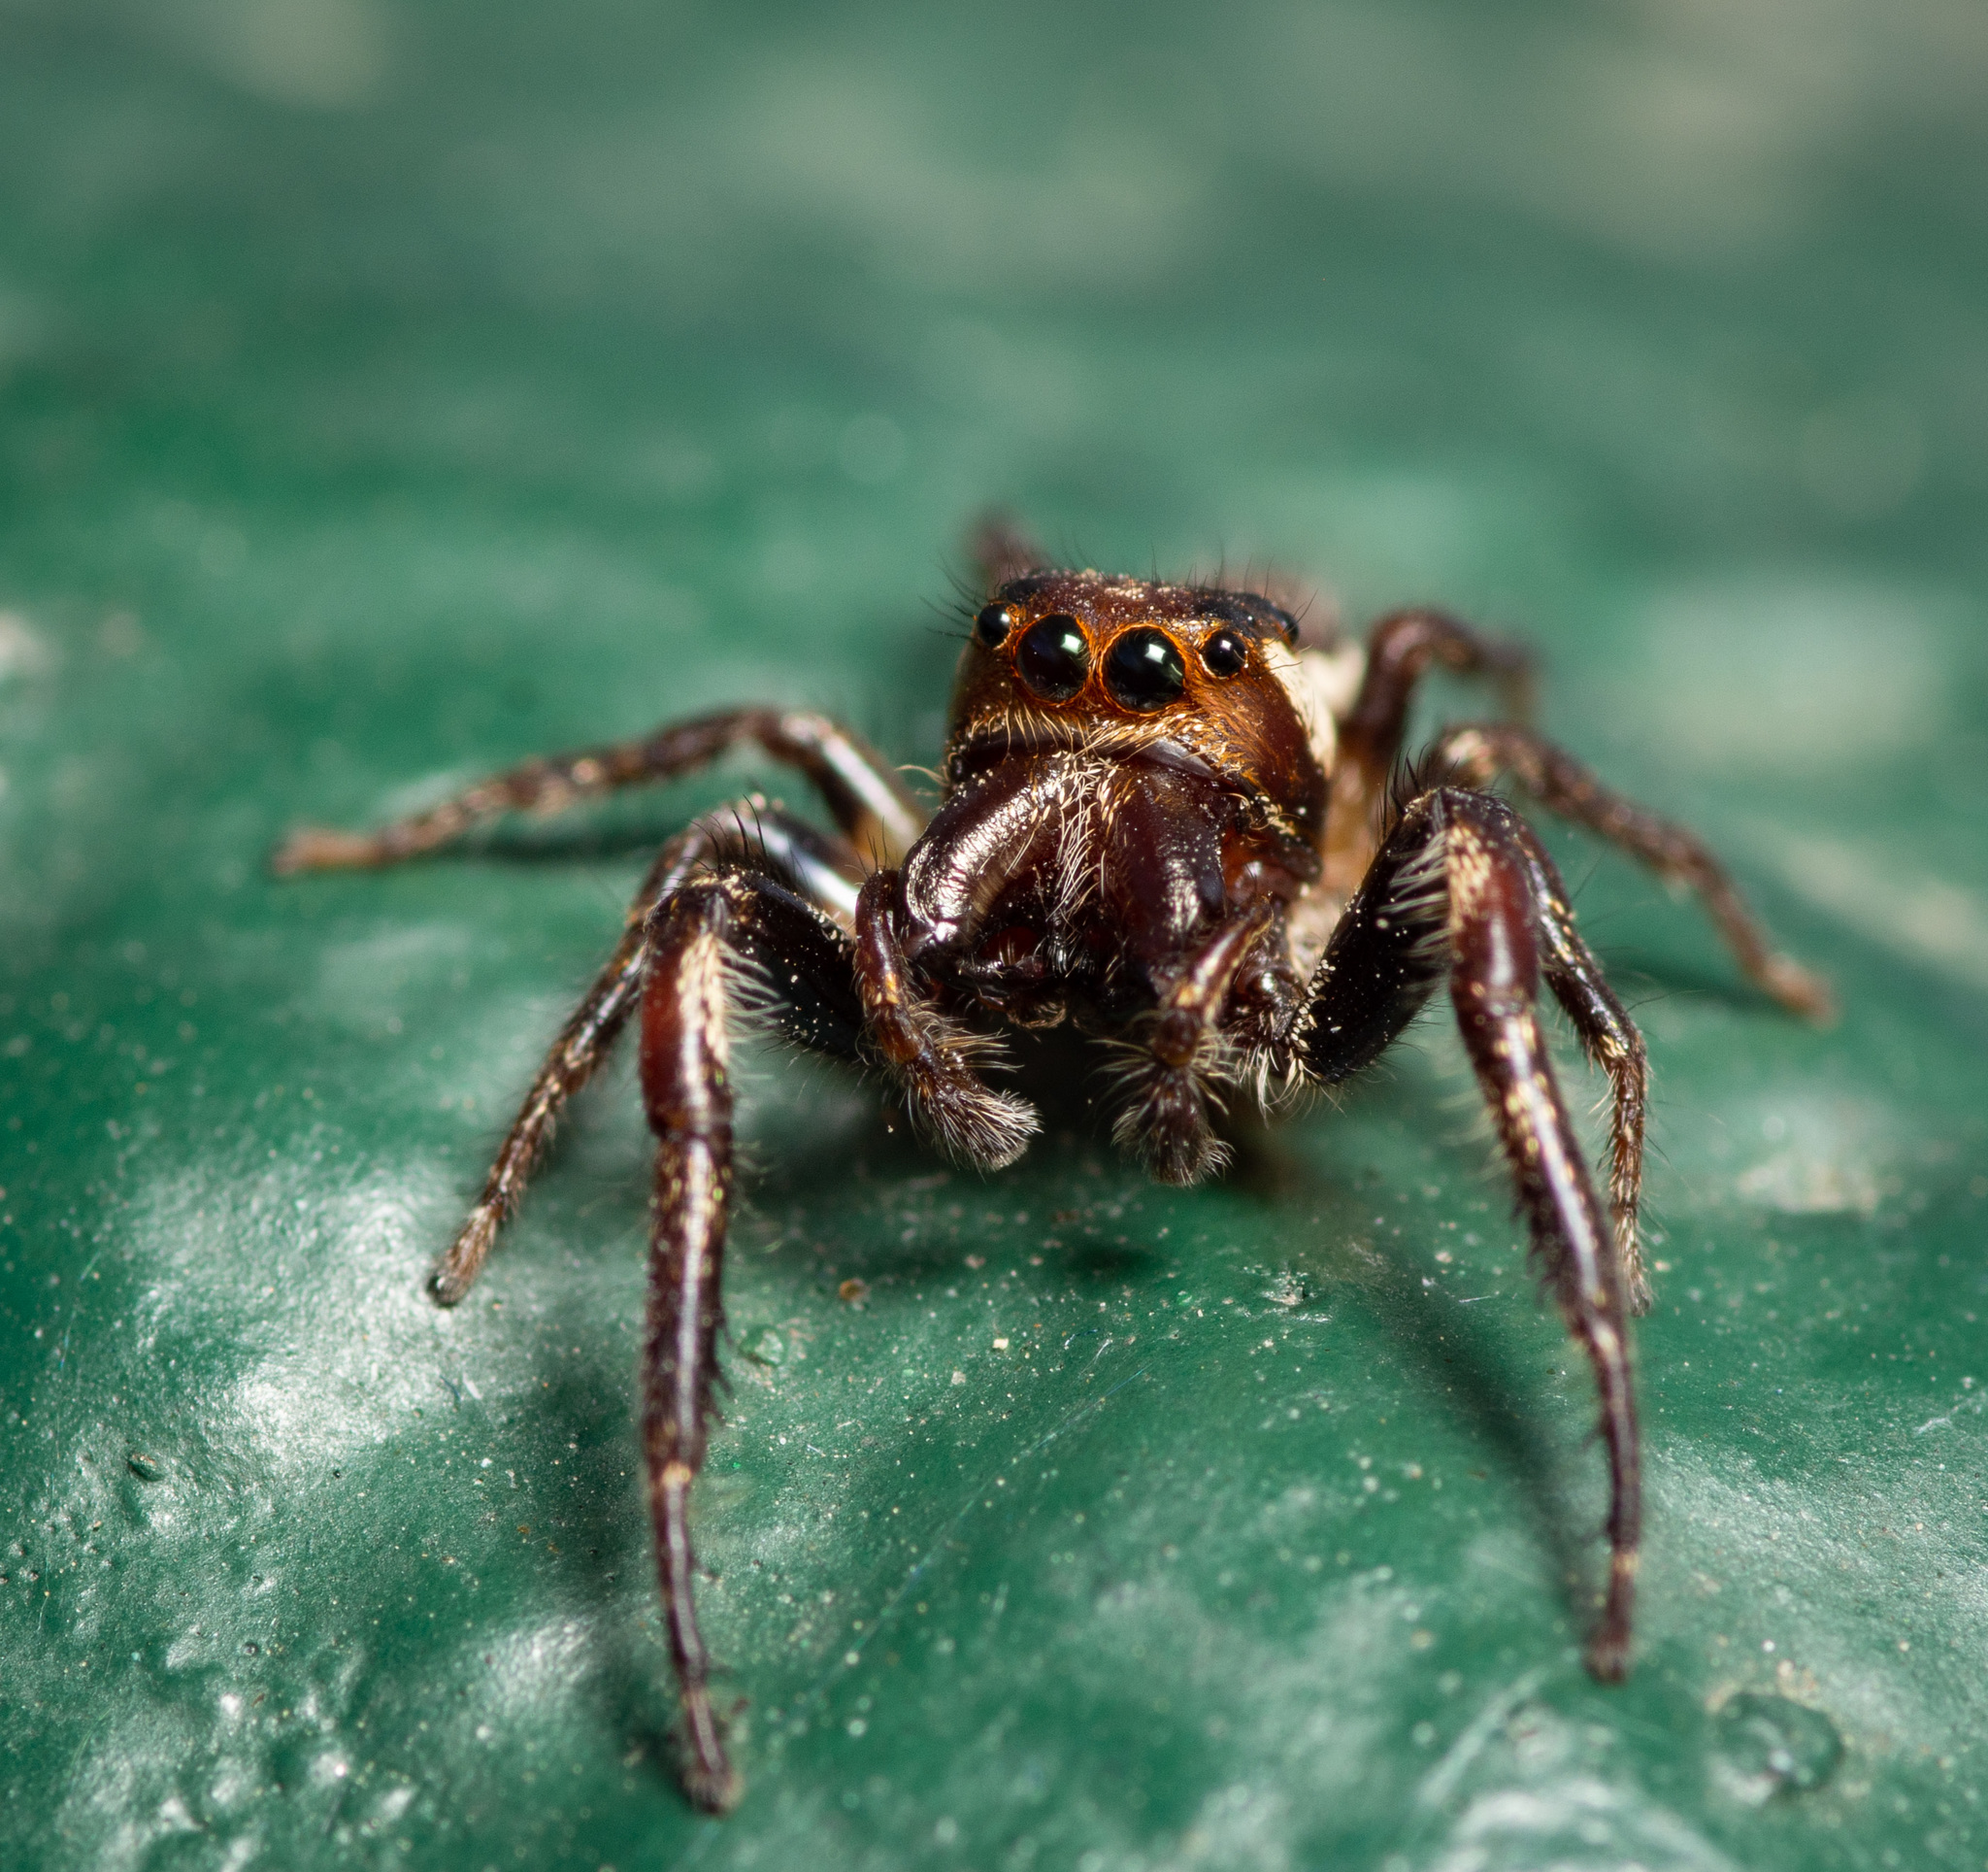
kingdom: Animalia
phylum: Arthropoda
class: Arachnida
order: Araneae
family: Salticidae
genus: Eris
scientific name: Eris militaris
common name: Bronze jumper
